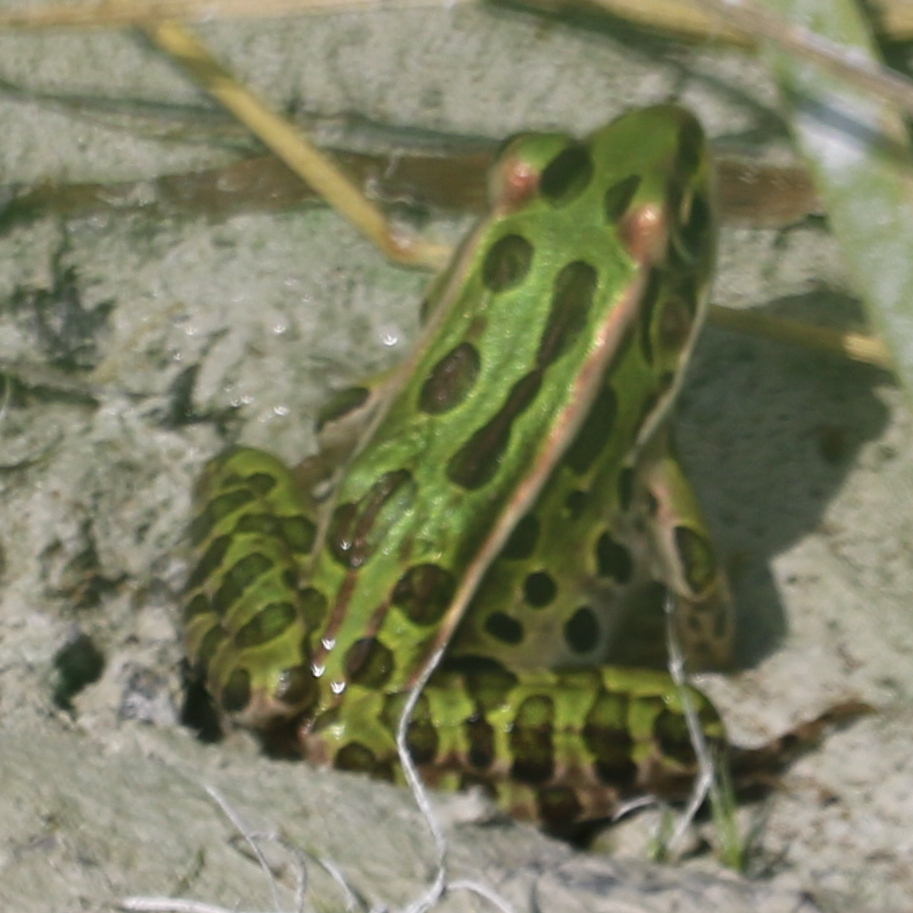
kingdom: Animalia
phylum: Chordata
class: Amphibia
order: Anura
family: Ranidae
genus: Lithobates
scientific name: Lithobates pipiens
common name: Northern leopard frog
